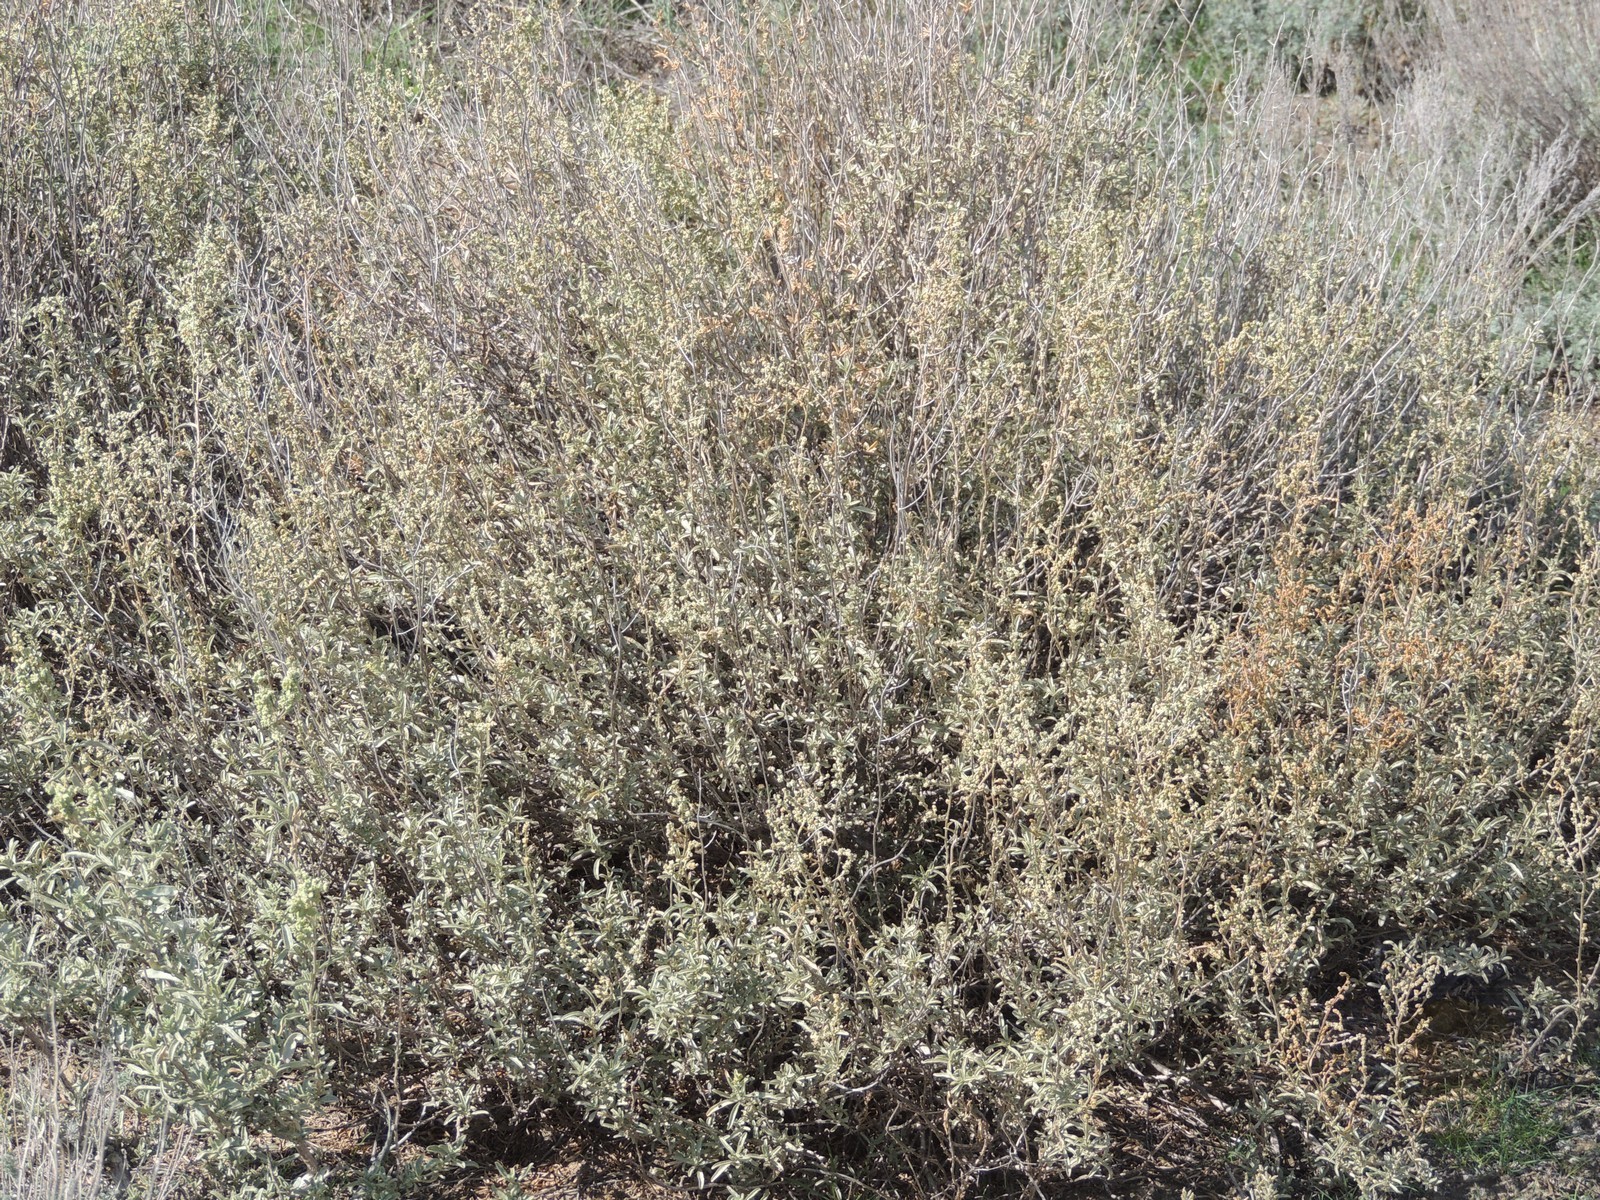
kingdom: Plantae
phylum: Tracheophyta
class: Magnoliopsida
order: Caryophyllales
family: Amaranthaceae
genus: Atriplex
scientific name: Atriplex cana
